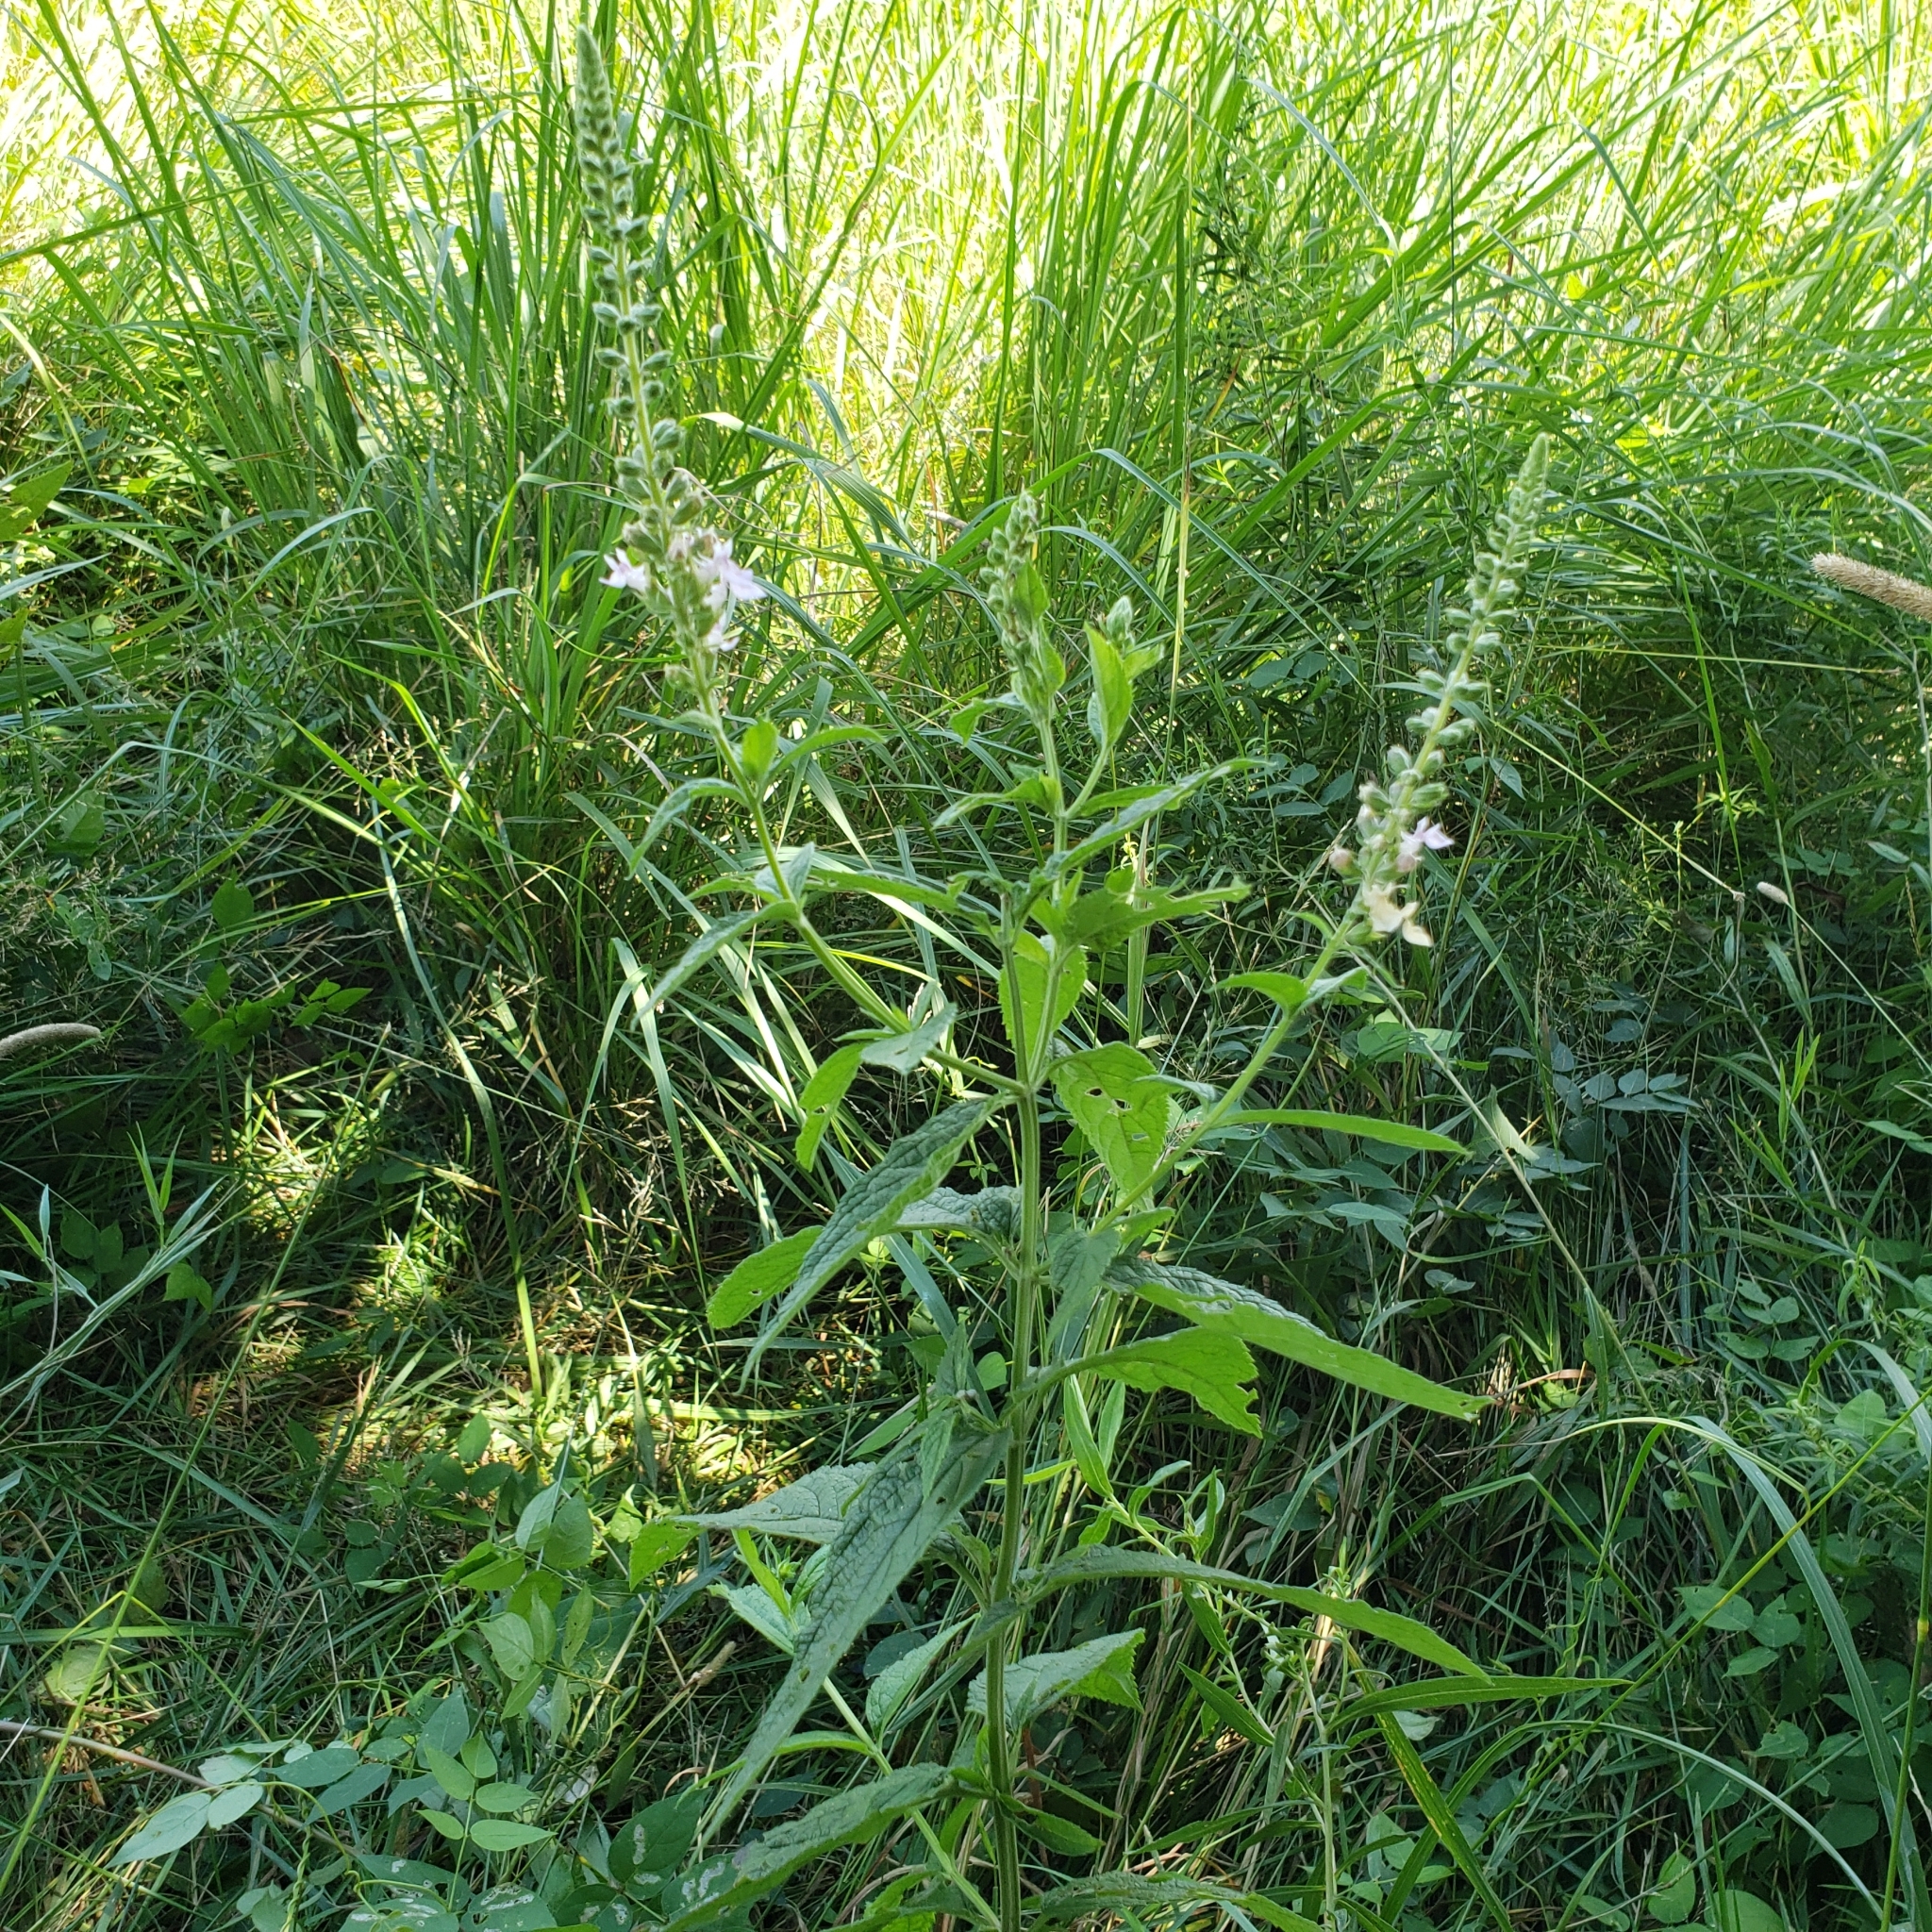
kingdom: Plantae
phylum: Tracheophyta
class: Magnoliopsida
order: Lamiales
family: Lamiaceae
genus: Teucrium
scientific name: Teucrium canadense
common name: American germander
